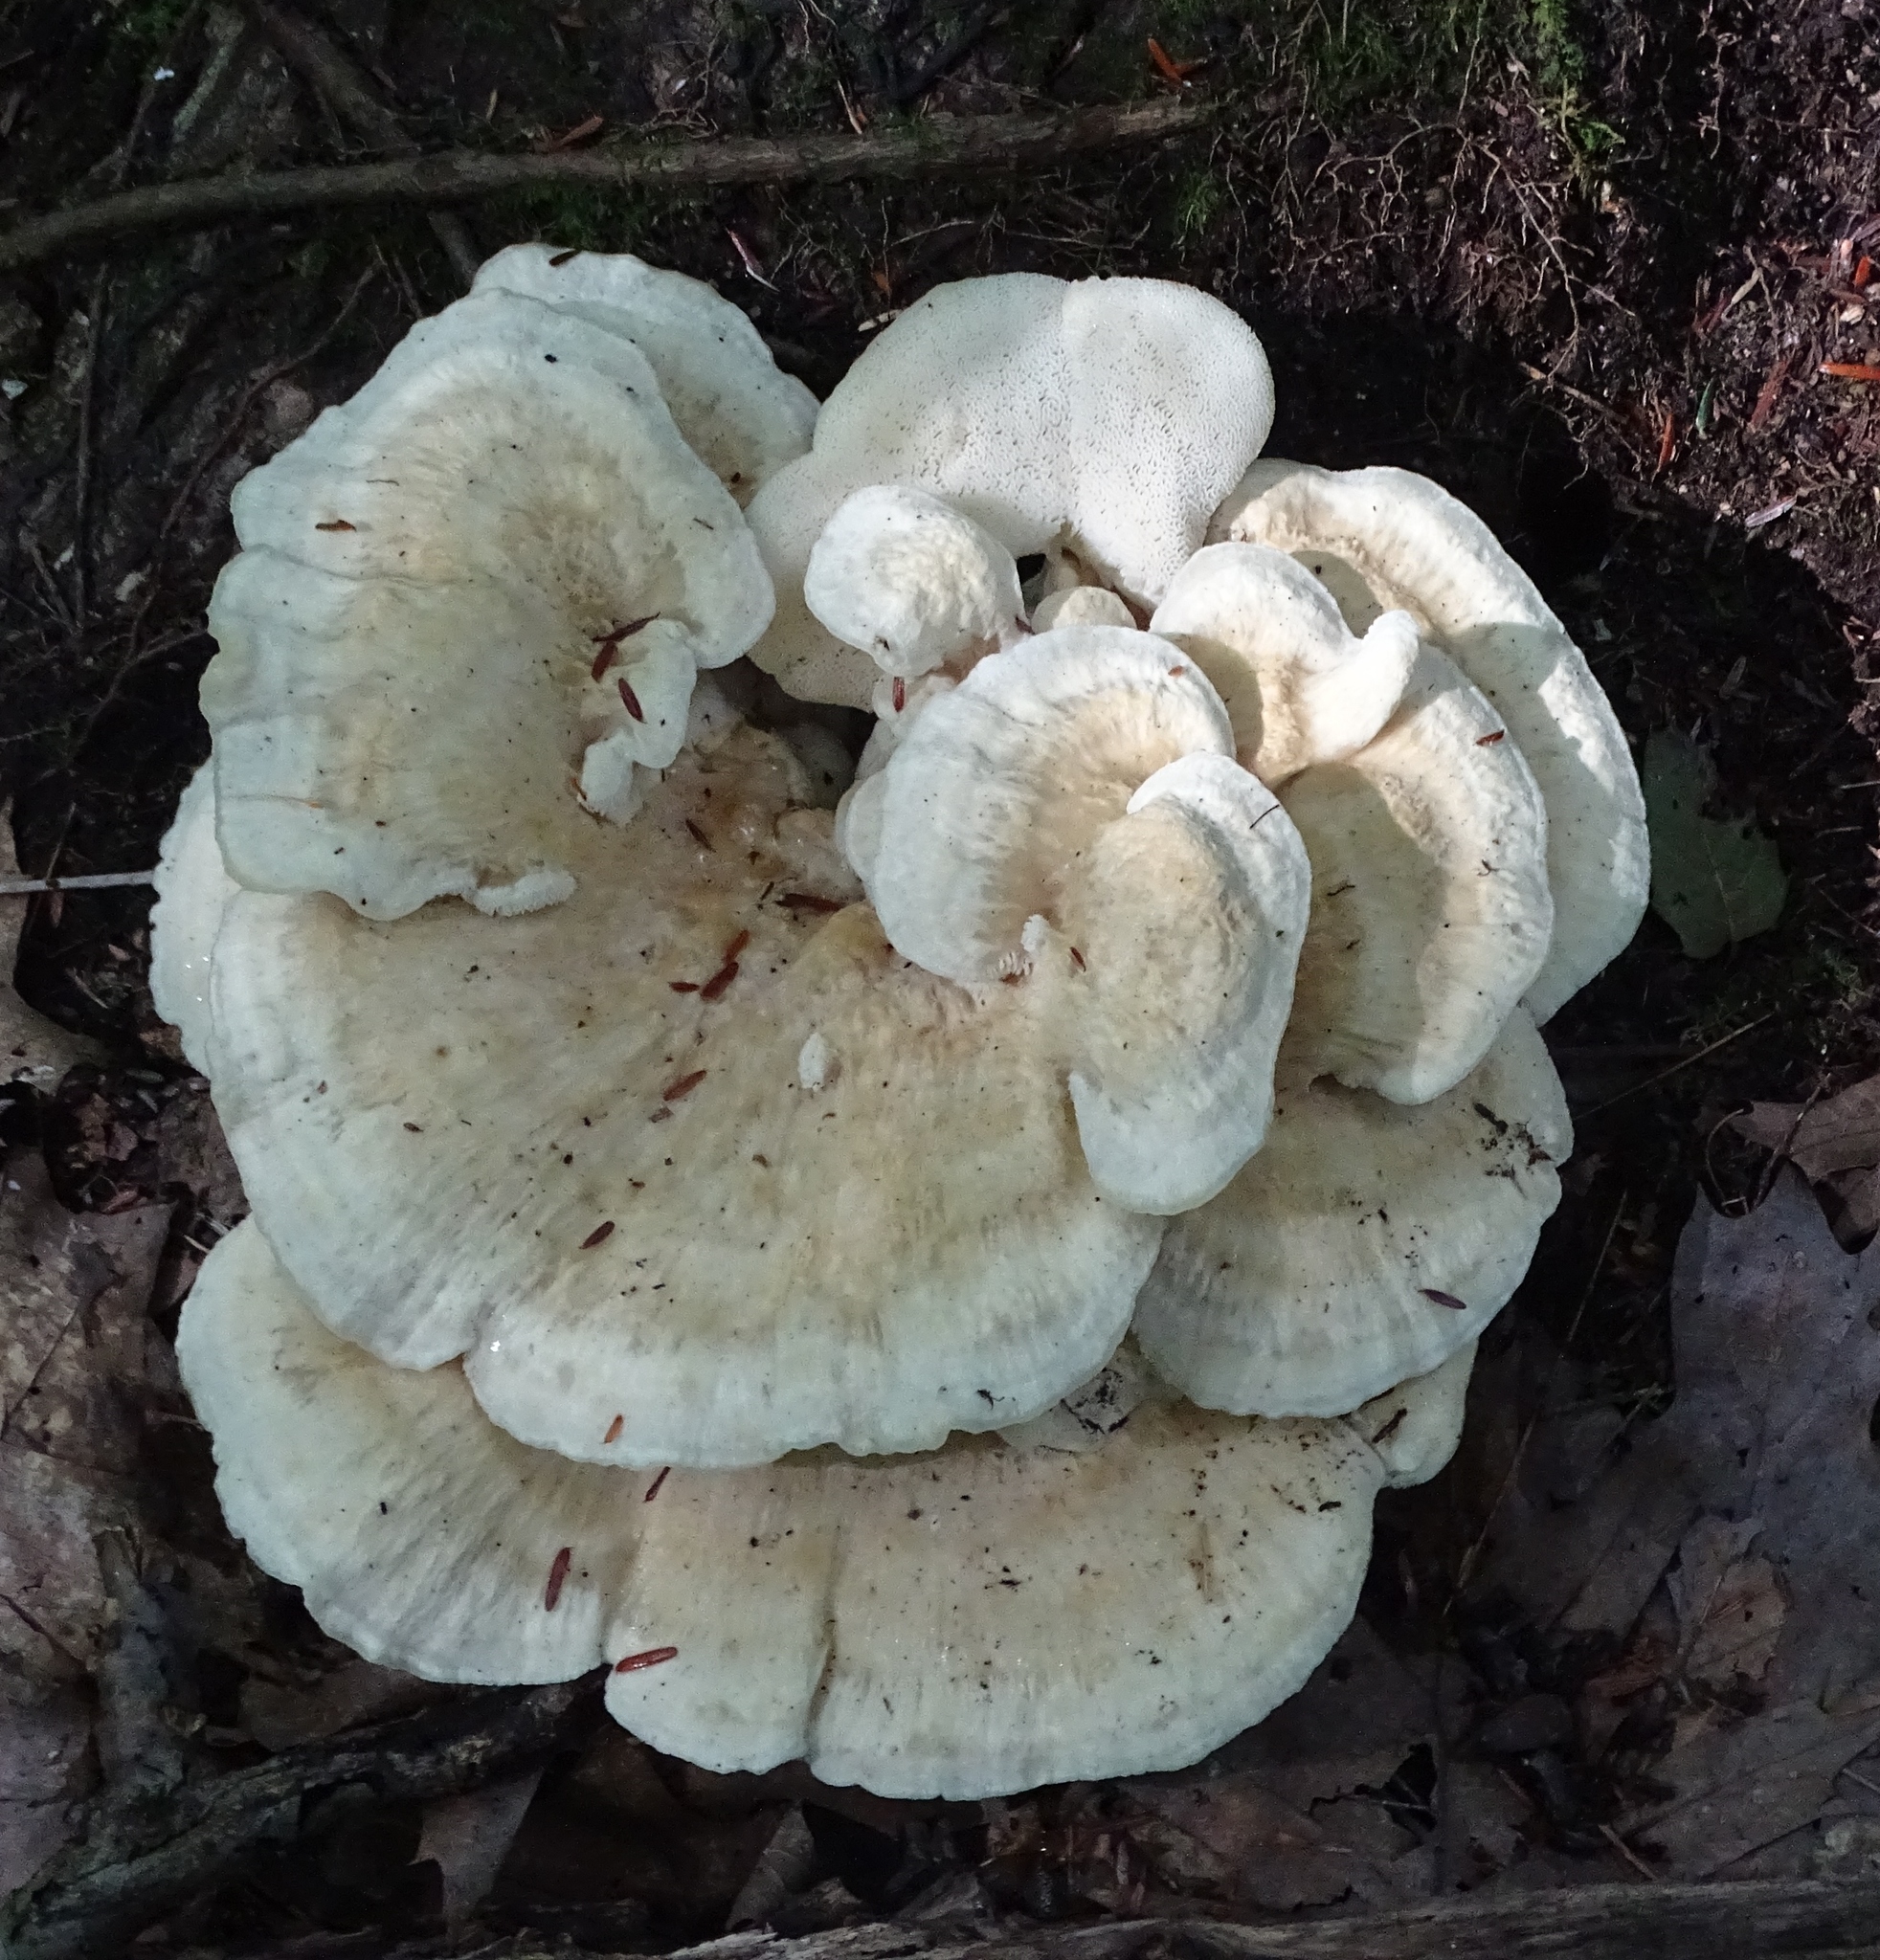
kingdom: Fungi
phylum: Basidiomycota
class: Agaricomycetes
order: Russulales
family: Bondarzewiaceae
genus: Bondarzewia
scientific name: Bondarzewia berkeleyi
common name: Berkeley's polypore
